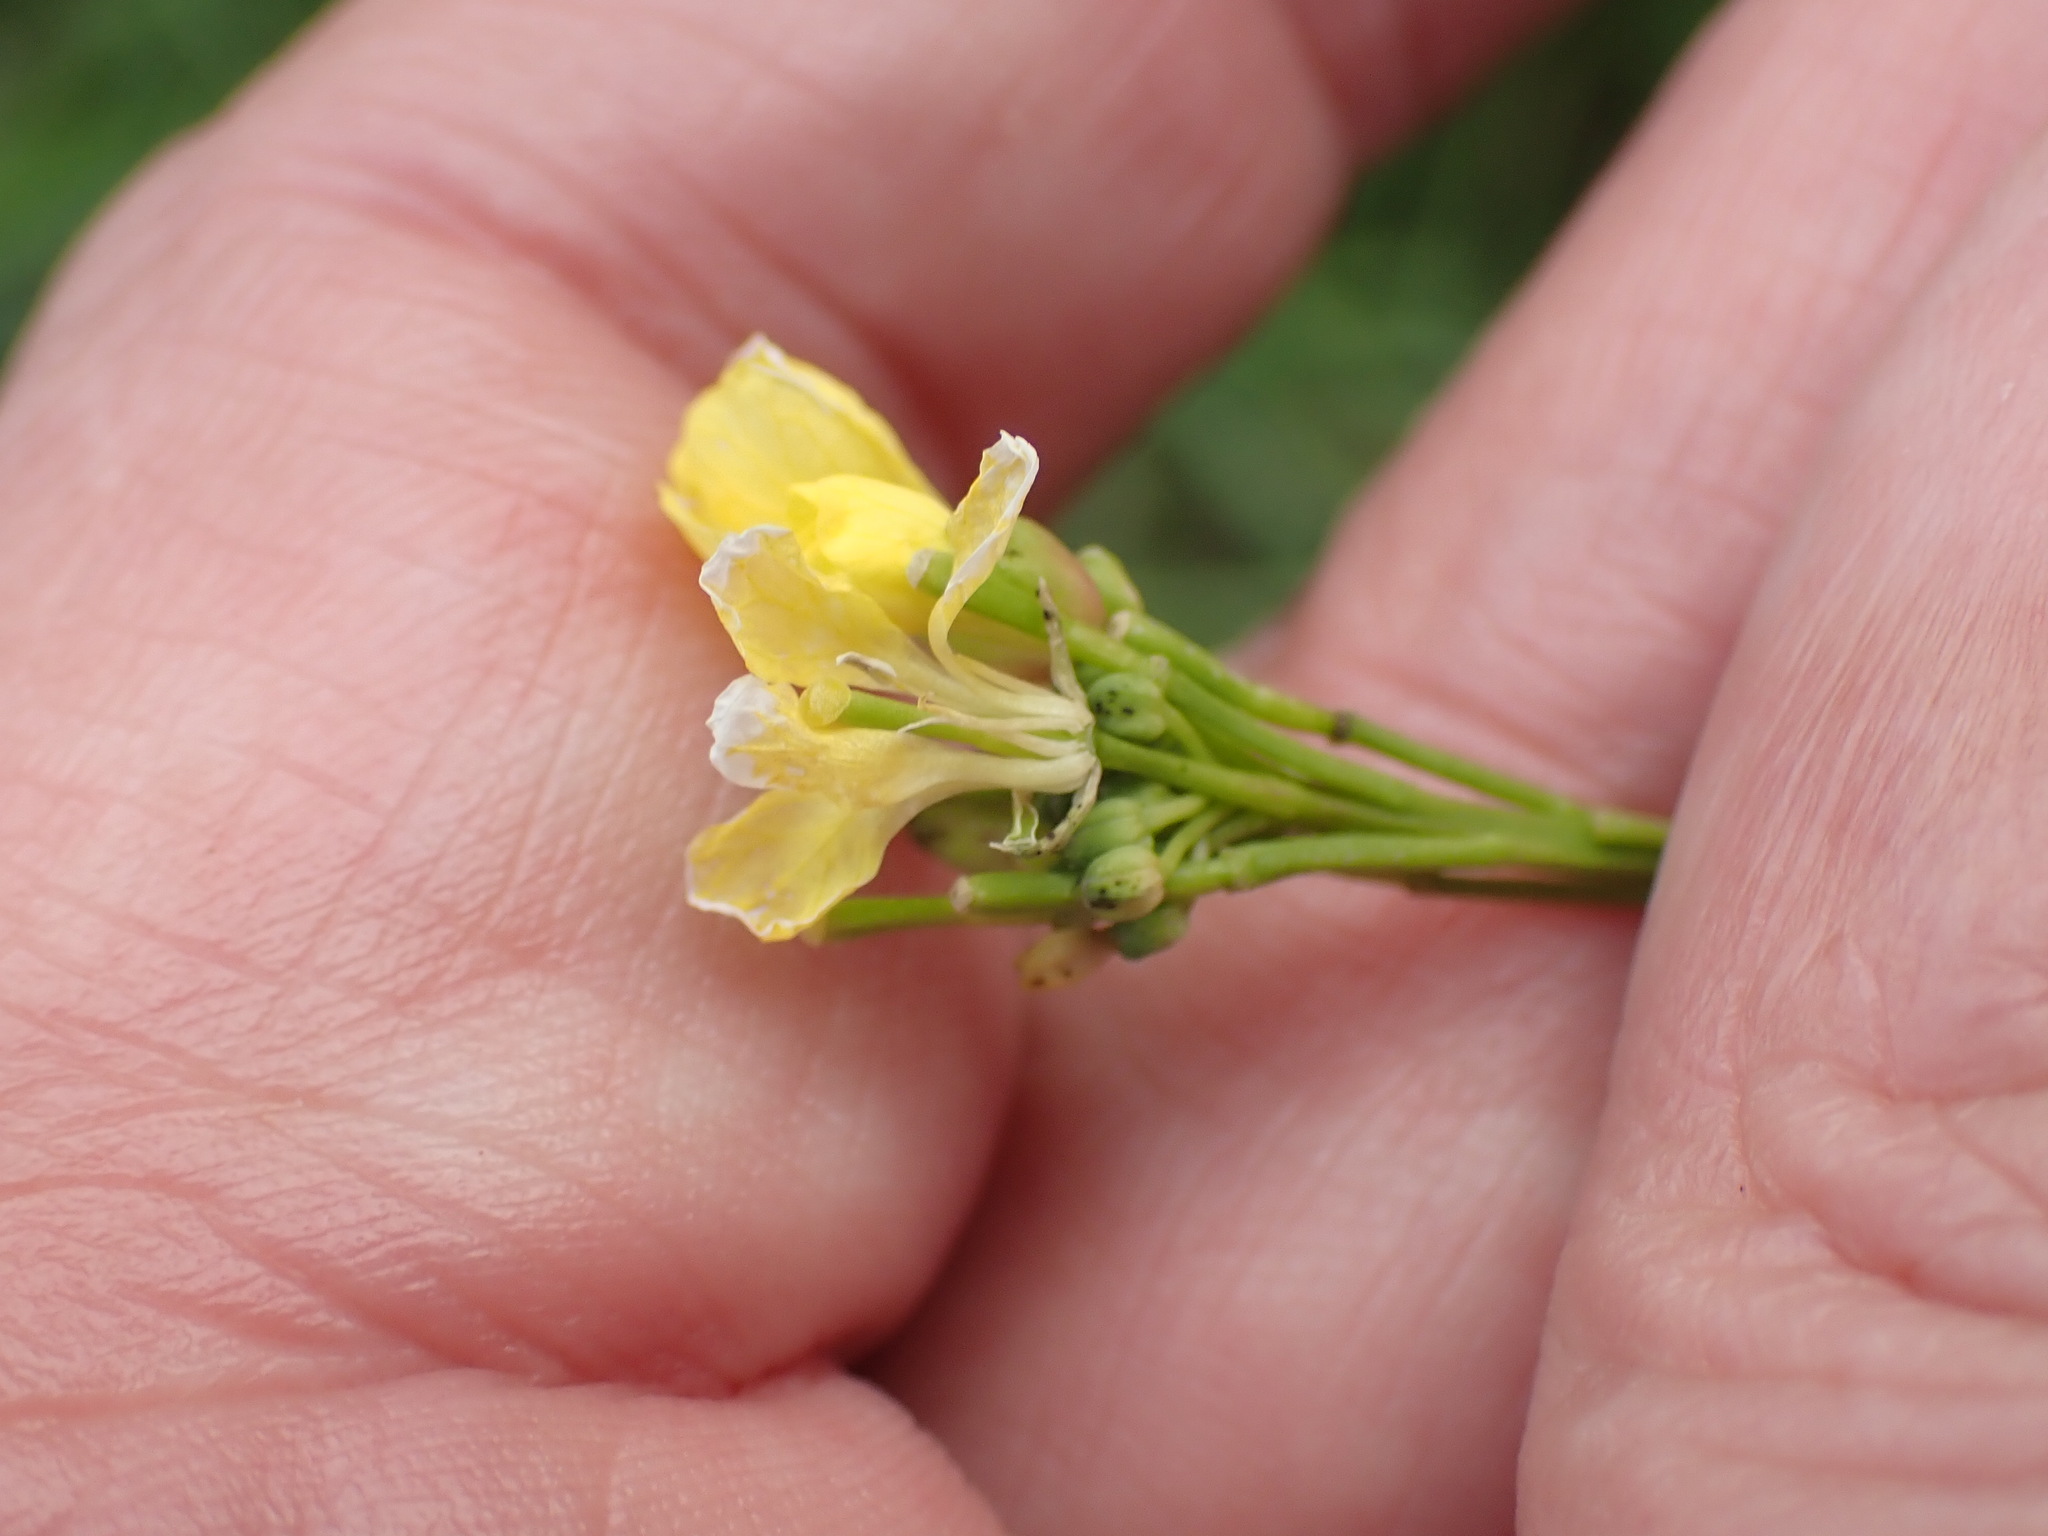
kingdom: Plantae
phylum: Tracheophyta
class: Magnoliopsida
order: Brassicales
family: Brassicaceae
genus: Hirschfeldia
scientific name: Hirschfeldia incana
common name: Hoary mustard
